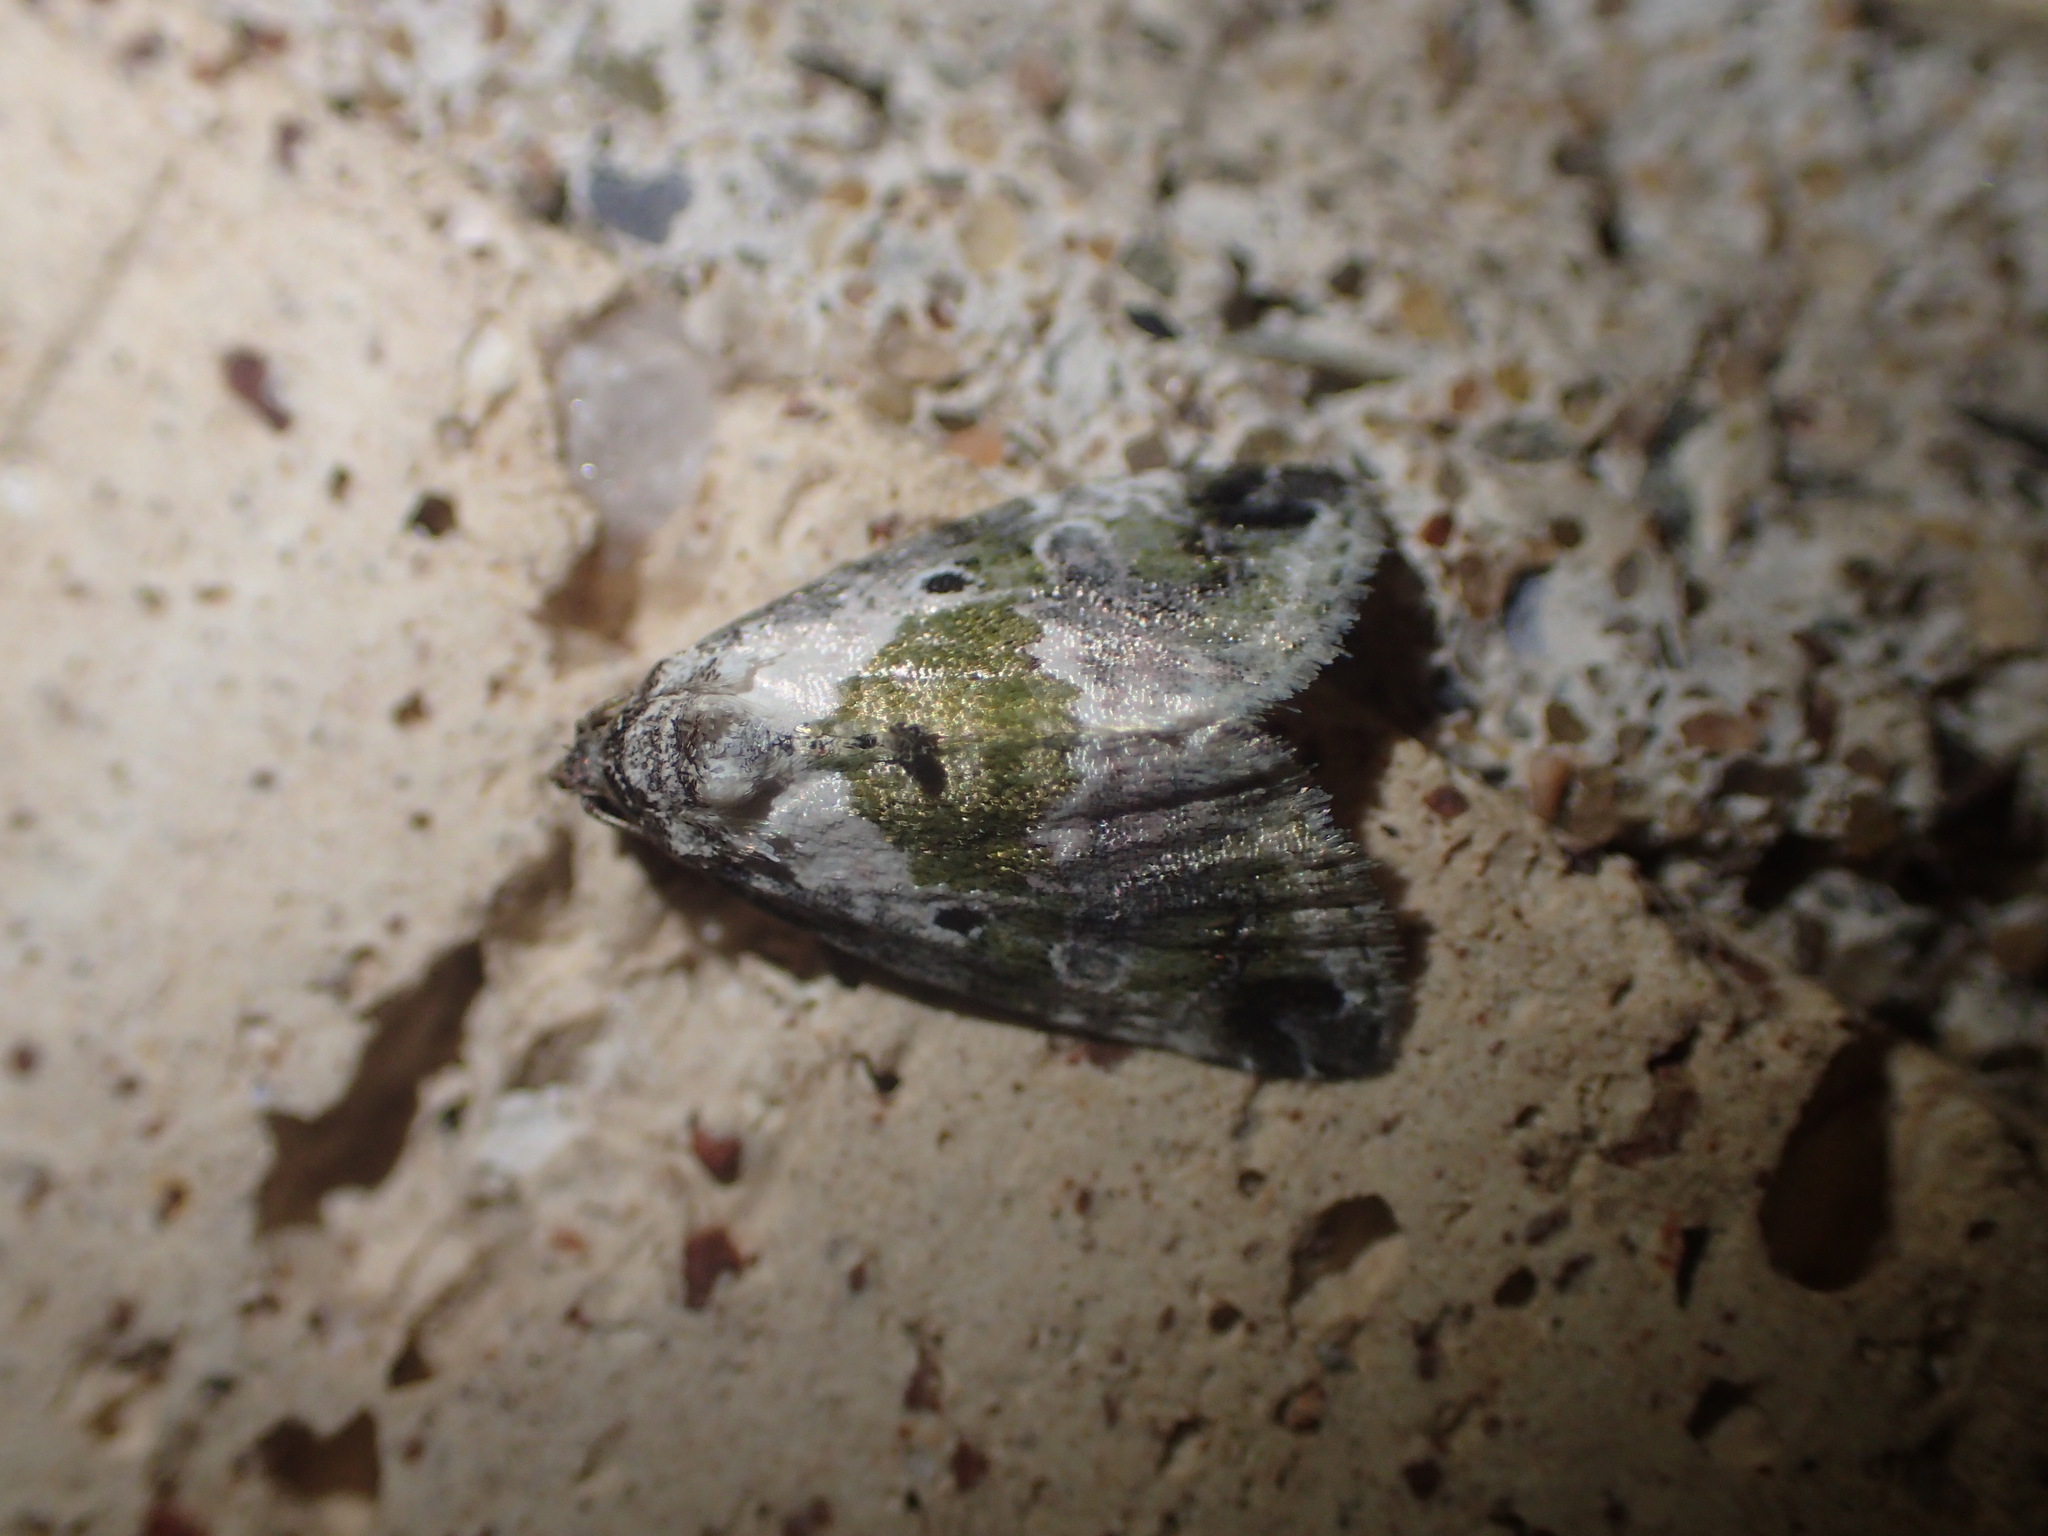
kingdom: Animalia
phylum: Arthropoda
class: Insecta
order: Lepidoptera
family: Noctuidae
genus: Maliattha
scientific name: Maliattha synochitis
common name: Black-dotted glyph
